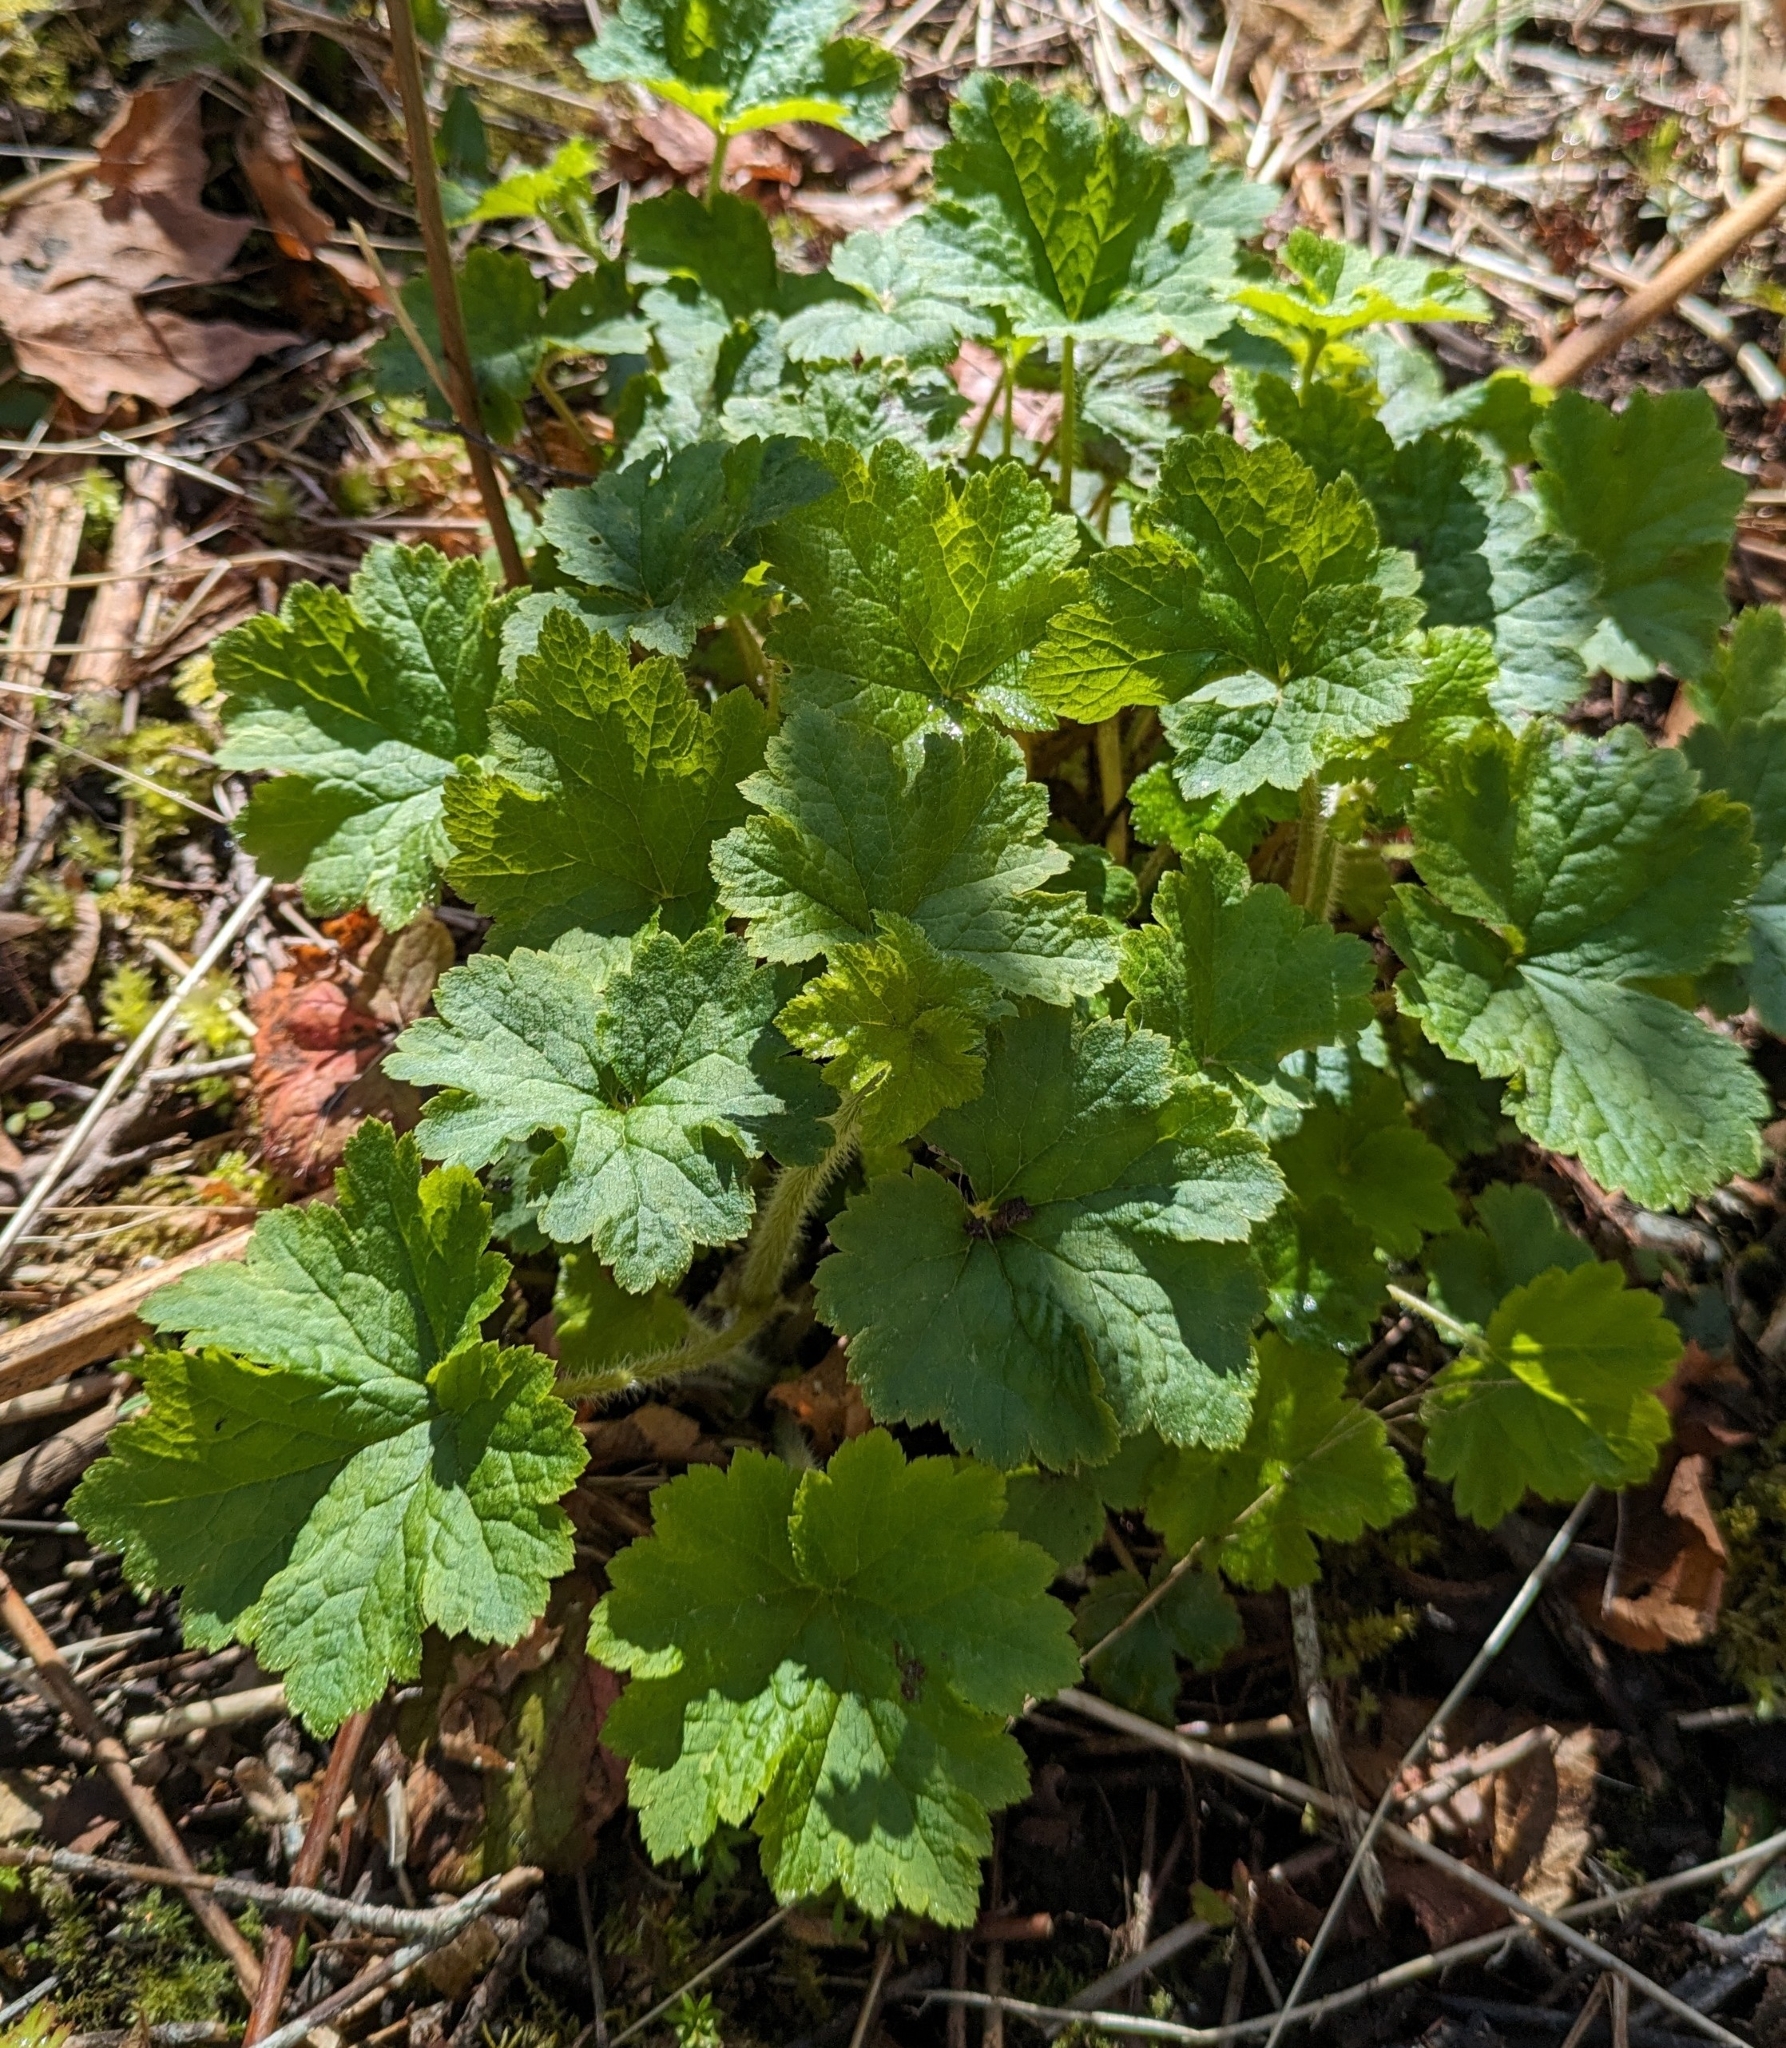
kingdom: Plantae
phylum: Tracheophyta
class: Magnoliopsida
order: Saxifragales
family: Saxifragaceae
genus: Tellima
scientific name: Tellima grandiflora
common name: Fringecups
